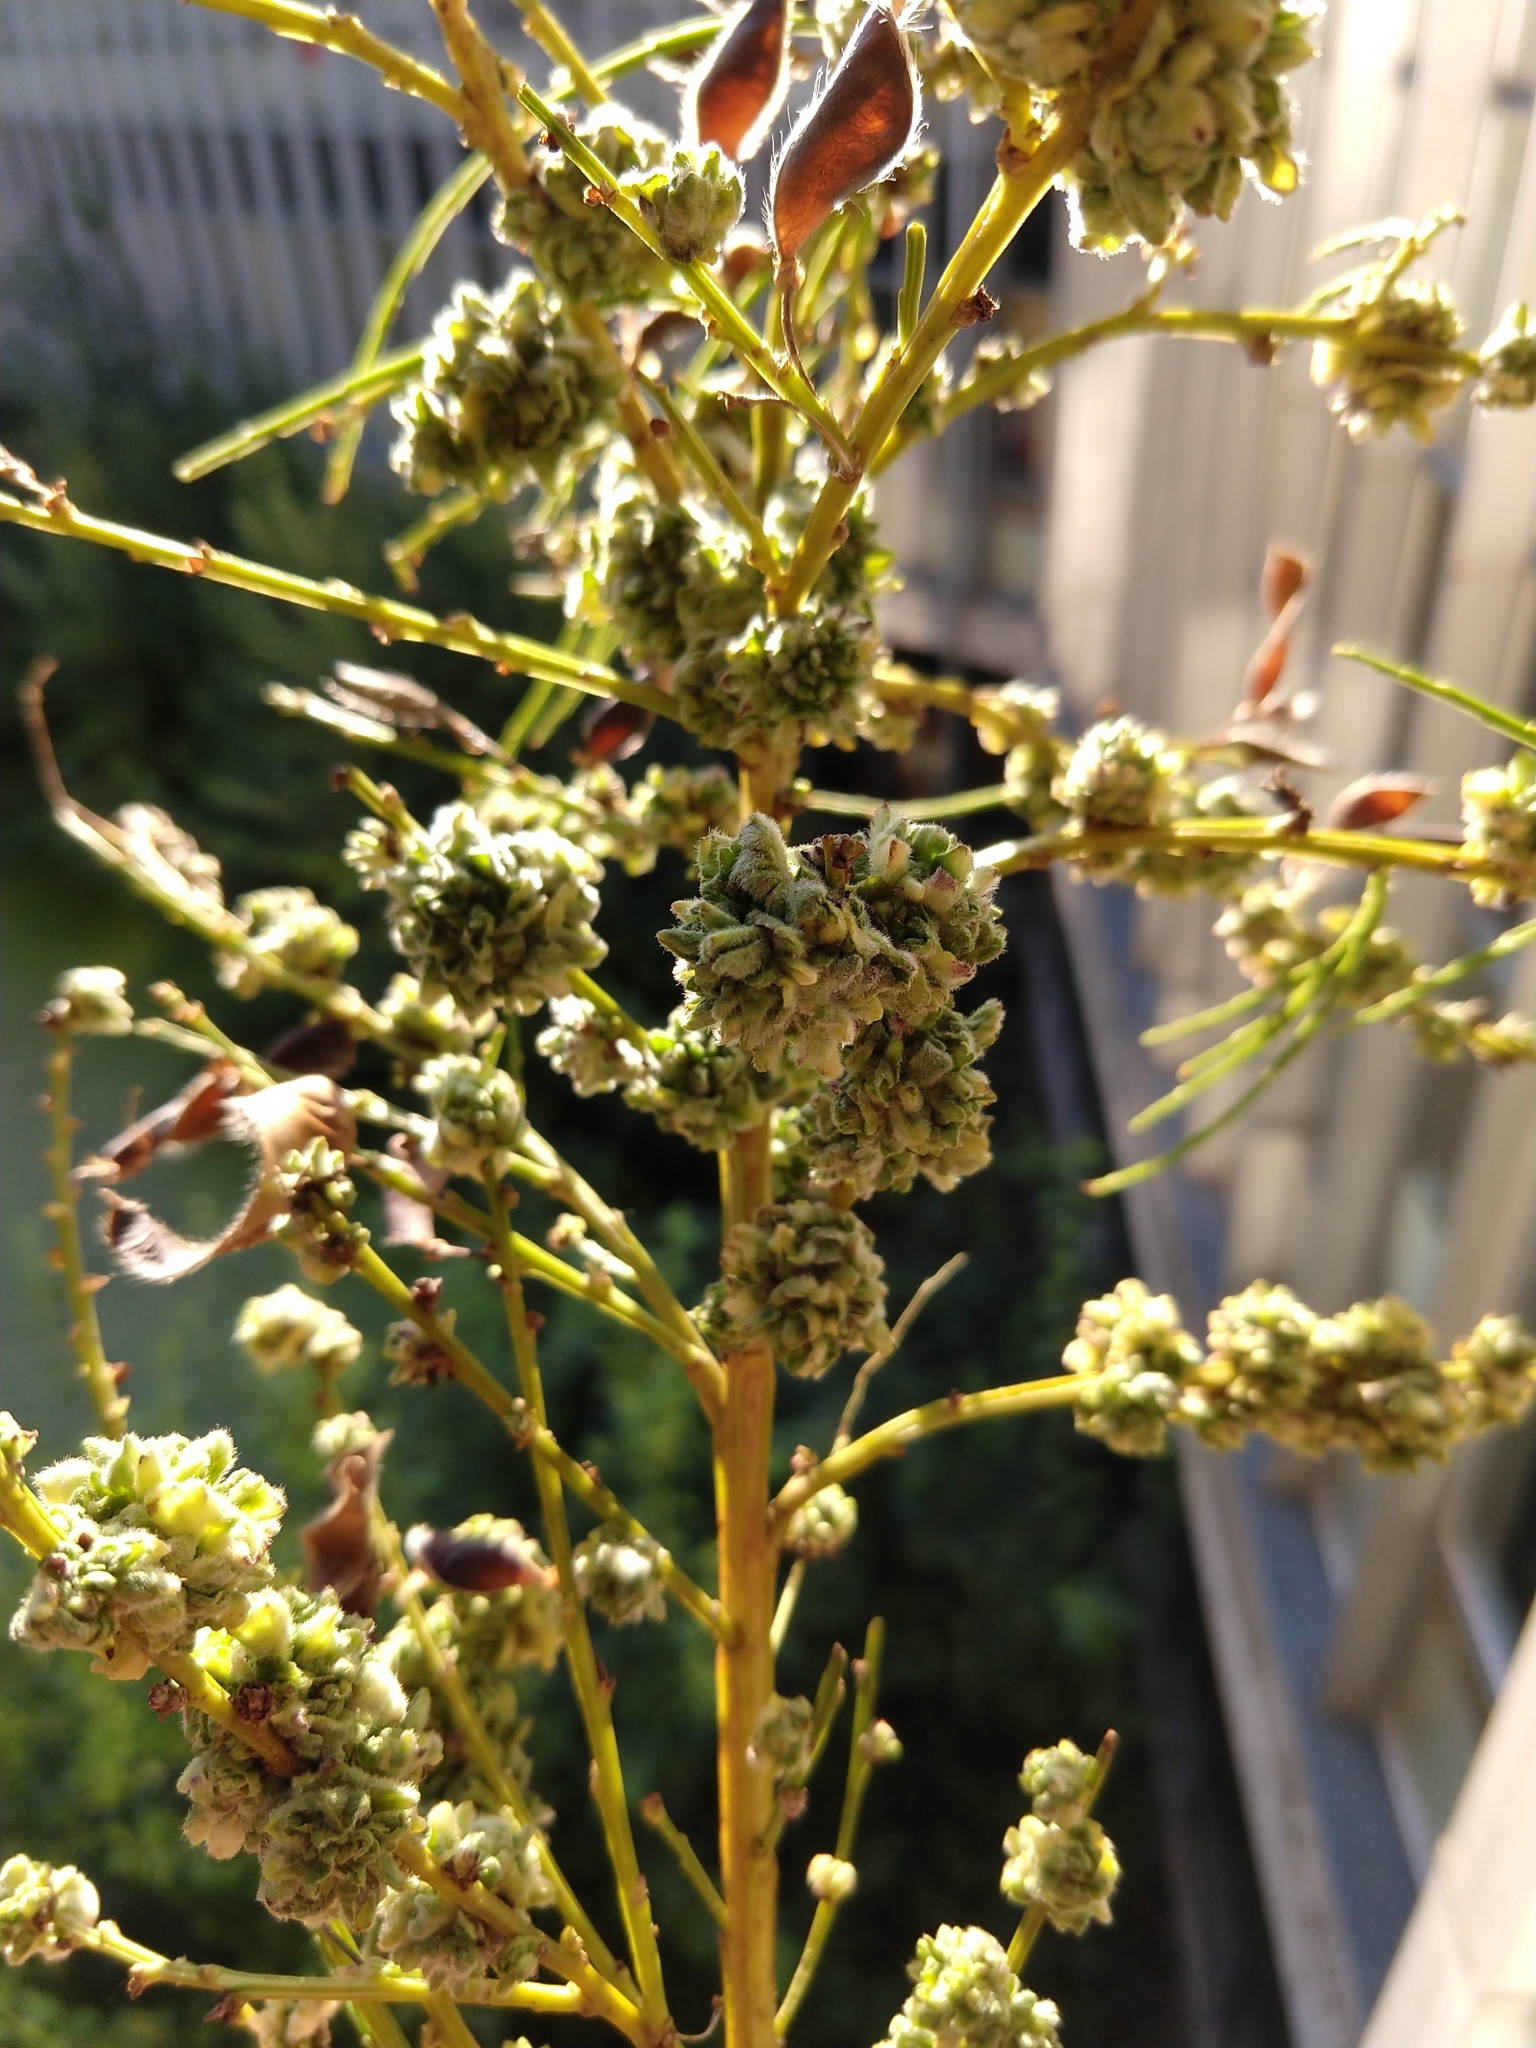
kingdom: Animalia
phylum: Arthropoda
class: Arachnida
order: Trombidiformes
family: Eriophyidae
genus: Aceria
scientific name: Aceria genistae
